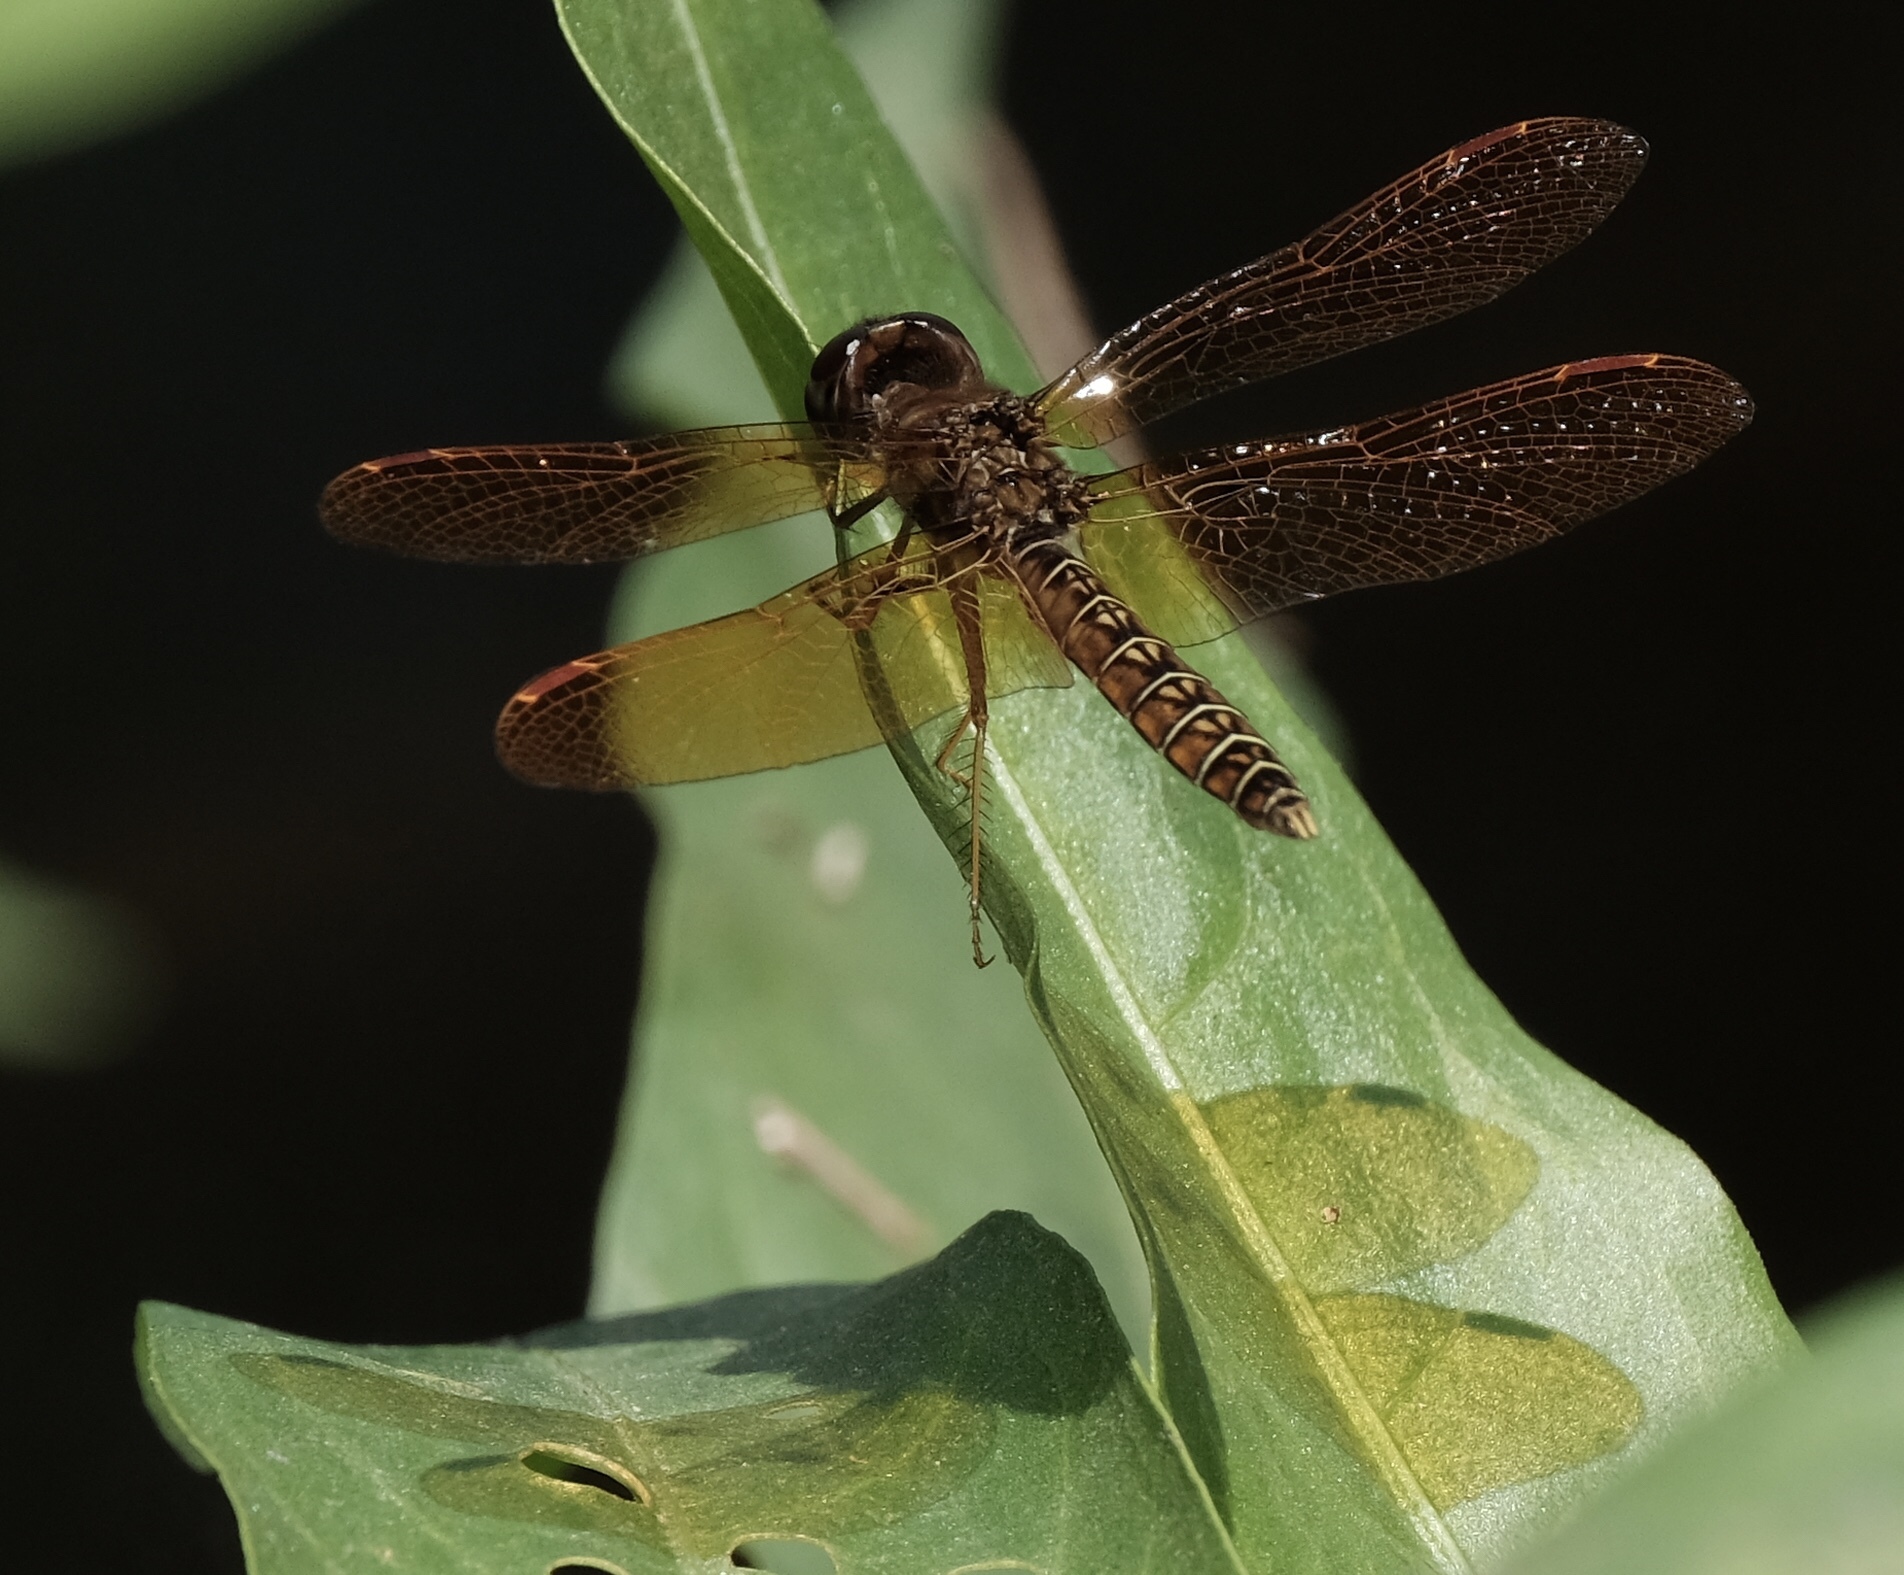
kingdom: Animalia
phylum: Arthropoda
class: Insecta
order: Odonata
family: Libellulidae
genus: Perithemis
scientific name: Perithemis tenera
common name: Eastern amberwing
